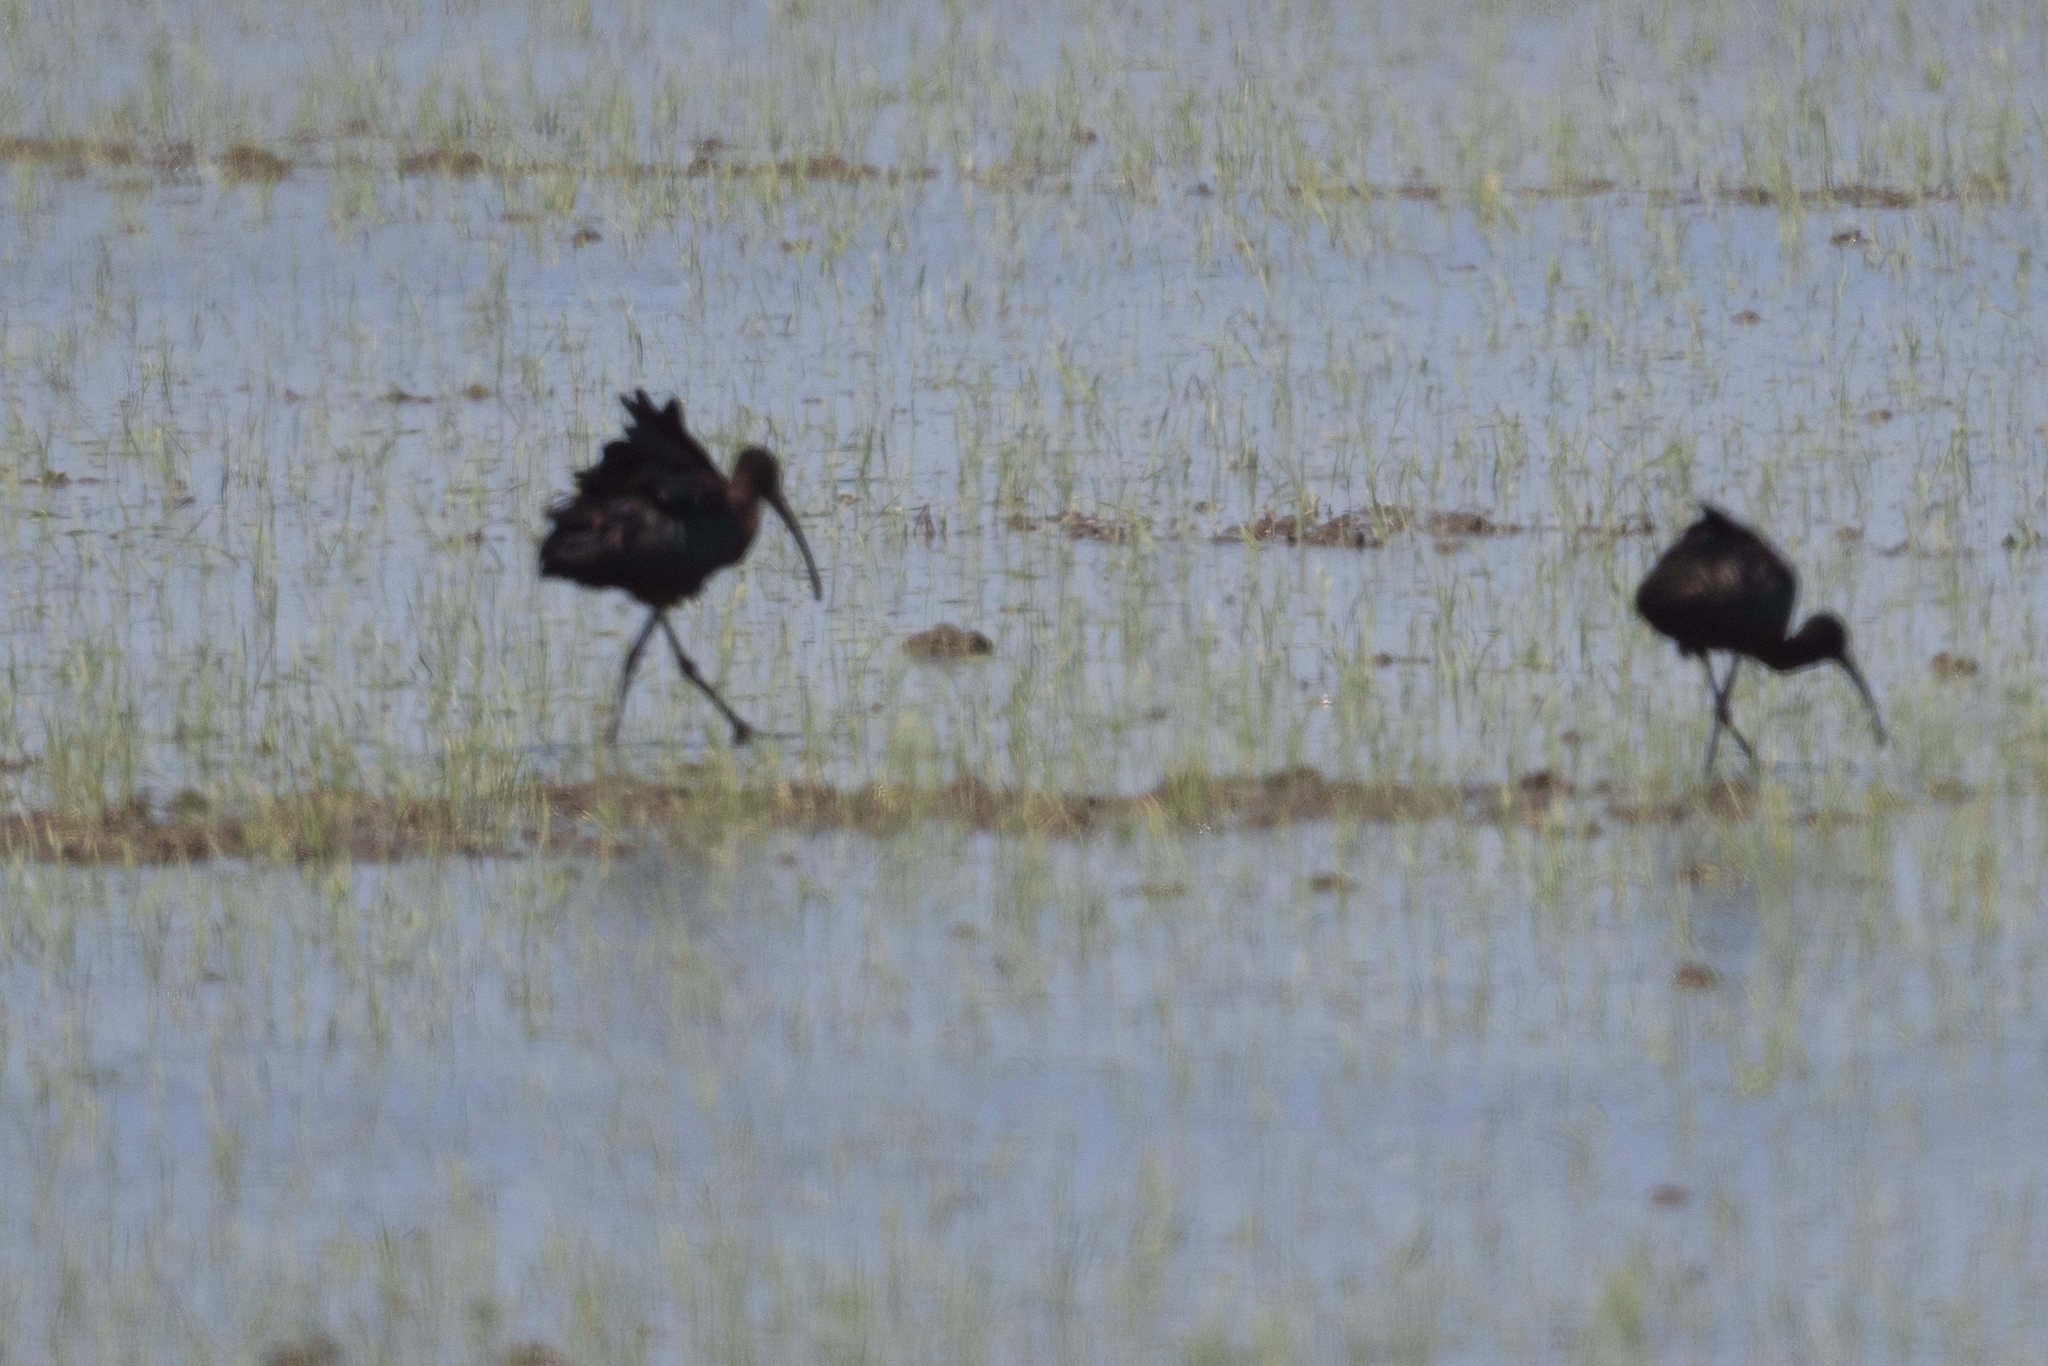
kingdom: Animalia
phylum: Chordata
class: Aves
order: Pelecaniformes
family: Threskiornithidae
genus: Plegadis
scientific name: Plegadis chihi
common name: White-faced ibis
